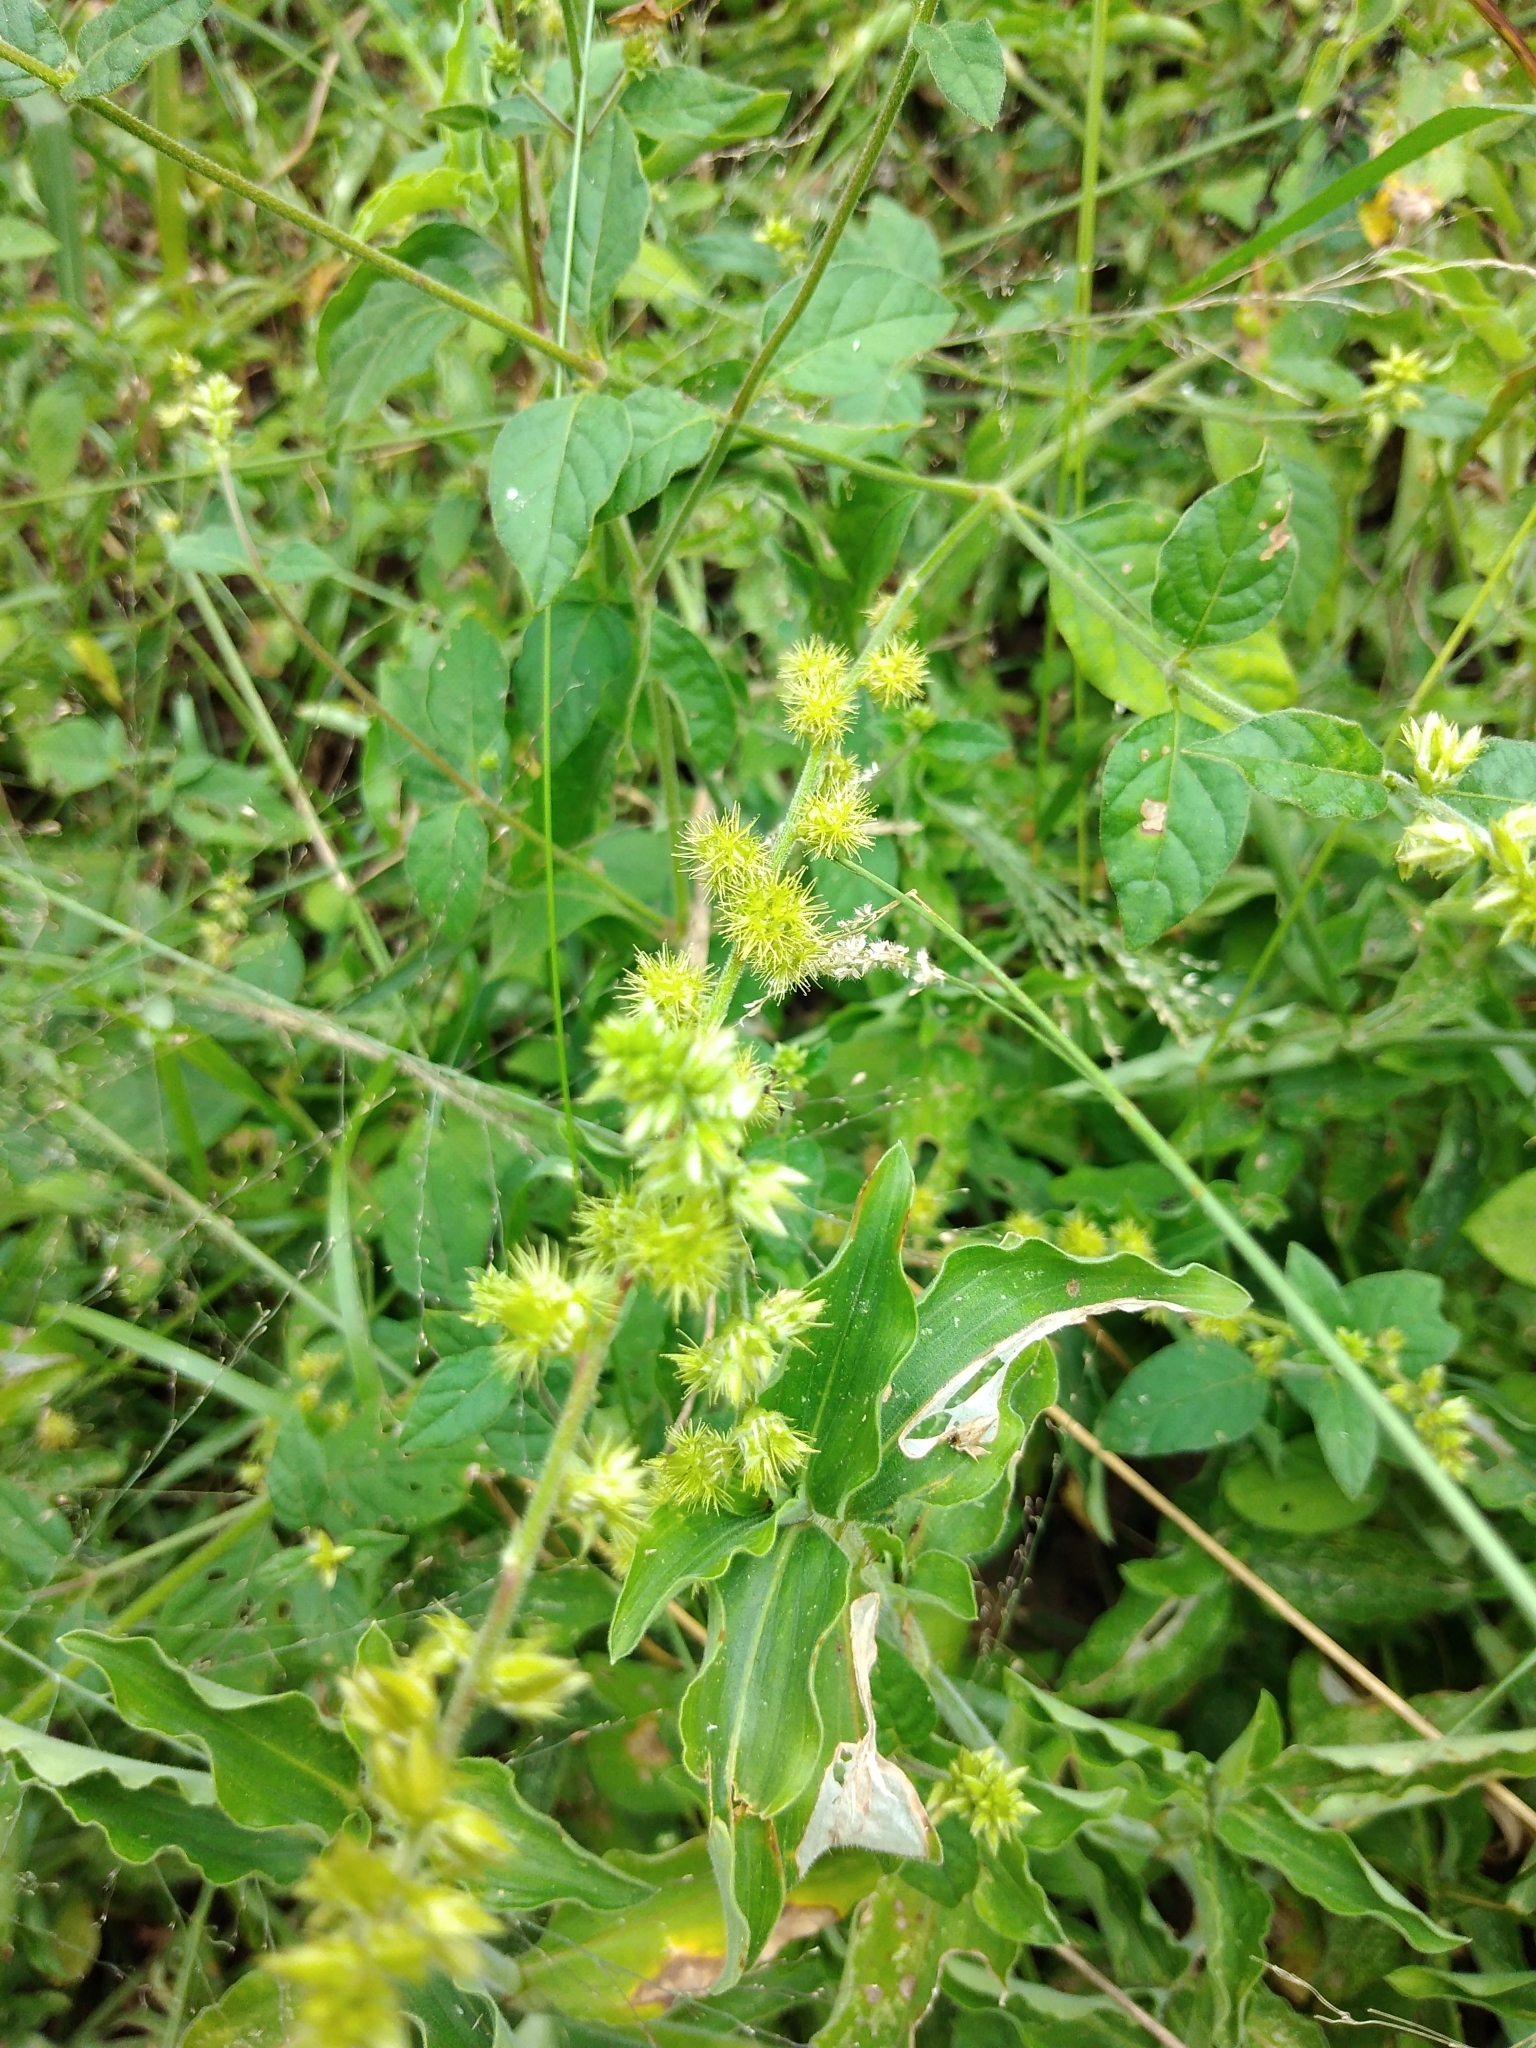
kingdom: Plantae
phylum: Tracheophyta
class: Magnoliopsida
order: Caryophyllales
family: Amaranthaceae
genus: Pupalia
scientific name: Pupalia lappacea
